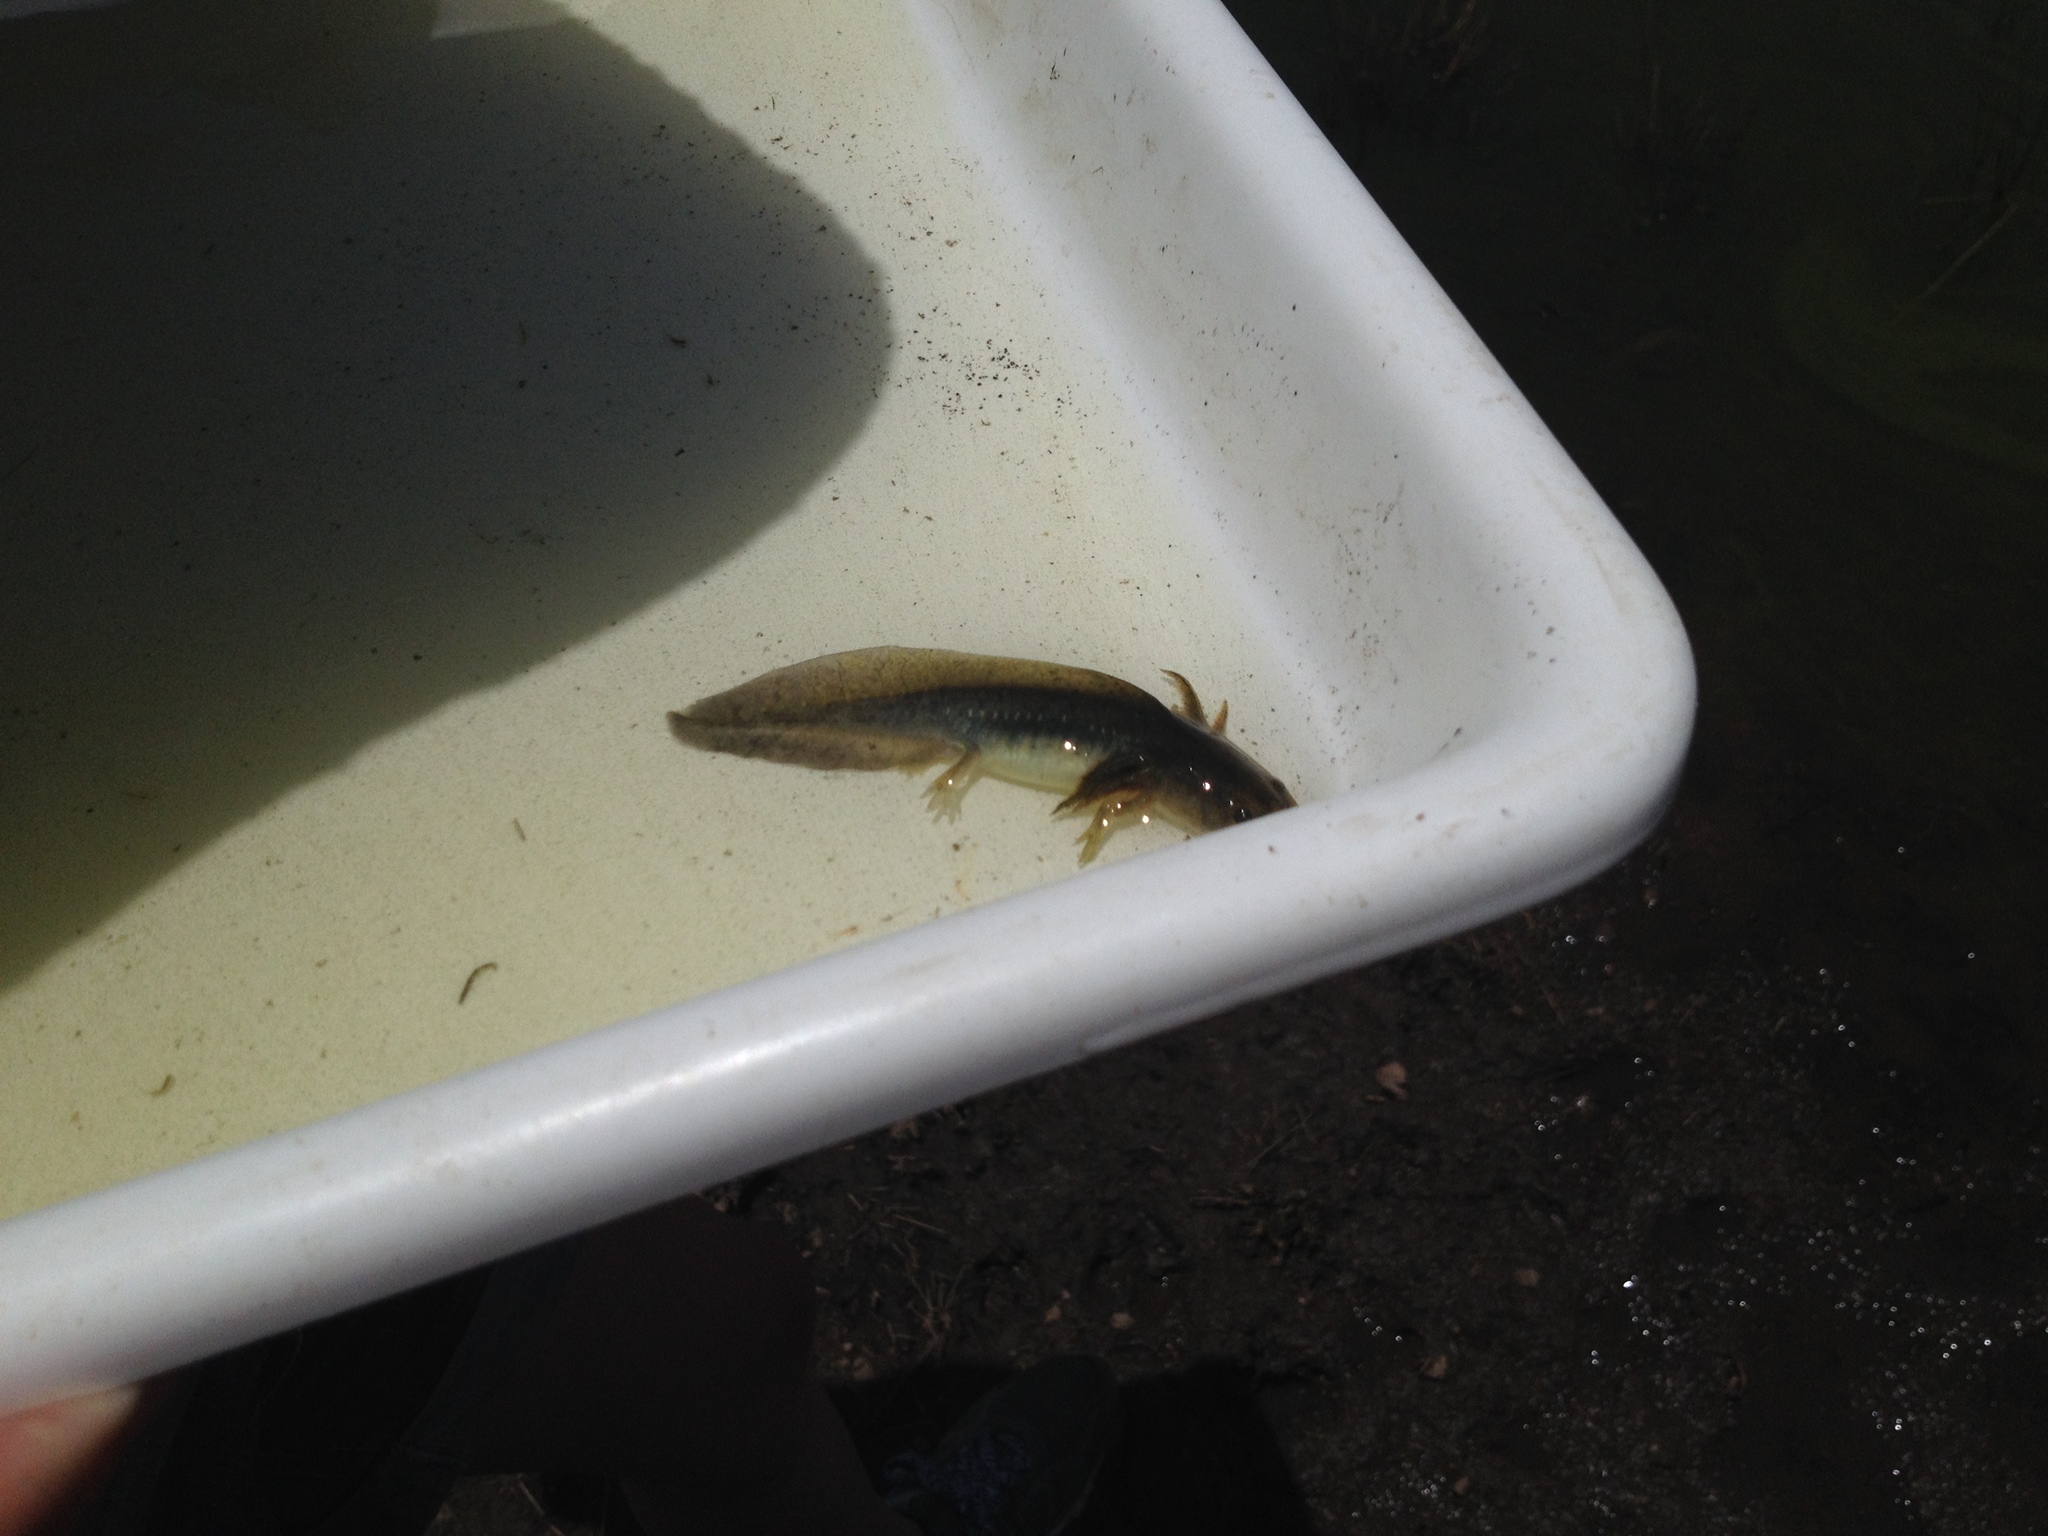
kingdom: Animalia
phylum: Chordata
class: Amphibia
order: Caudata
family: Ambystomatidae
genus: Ambystoma
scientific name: Ambystoma mavortium
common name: Western tiger salamander
